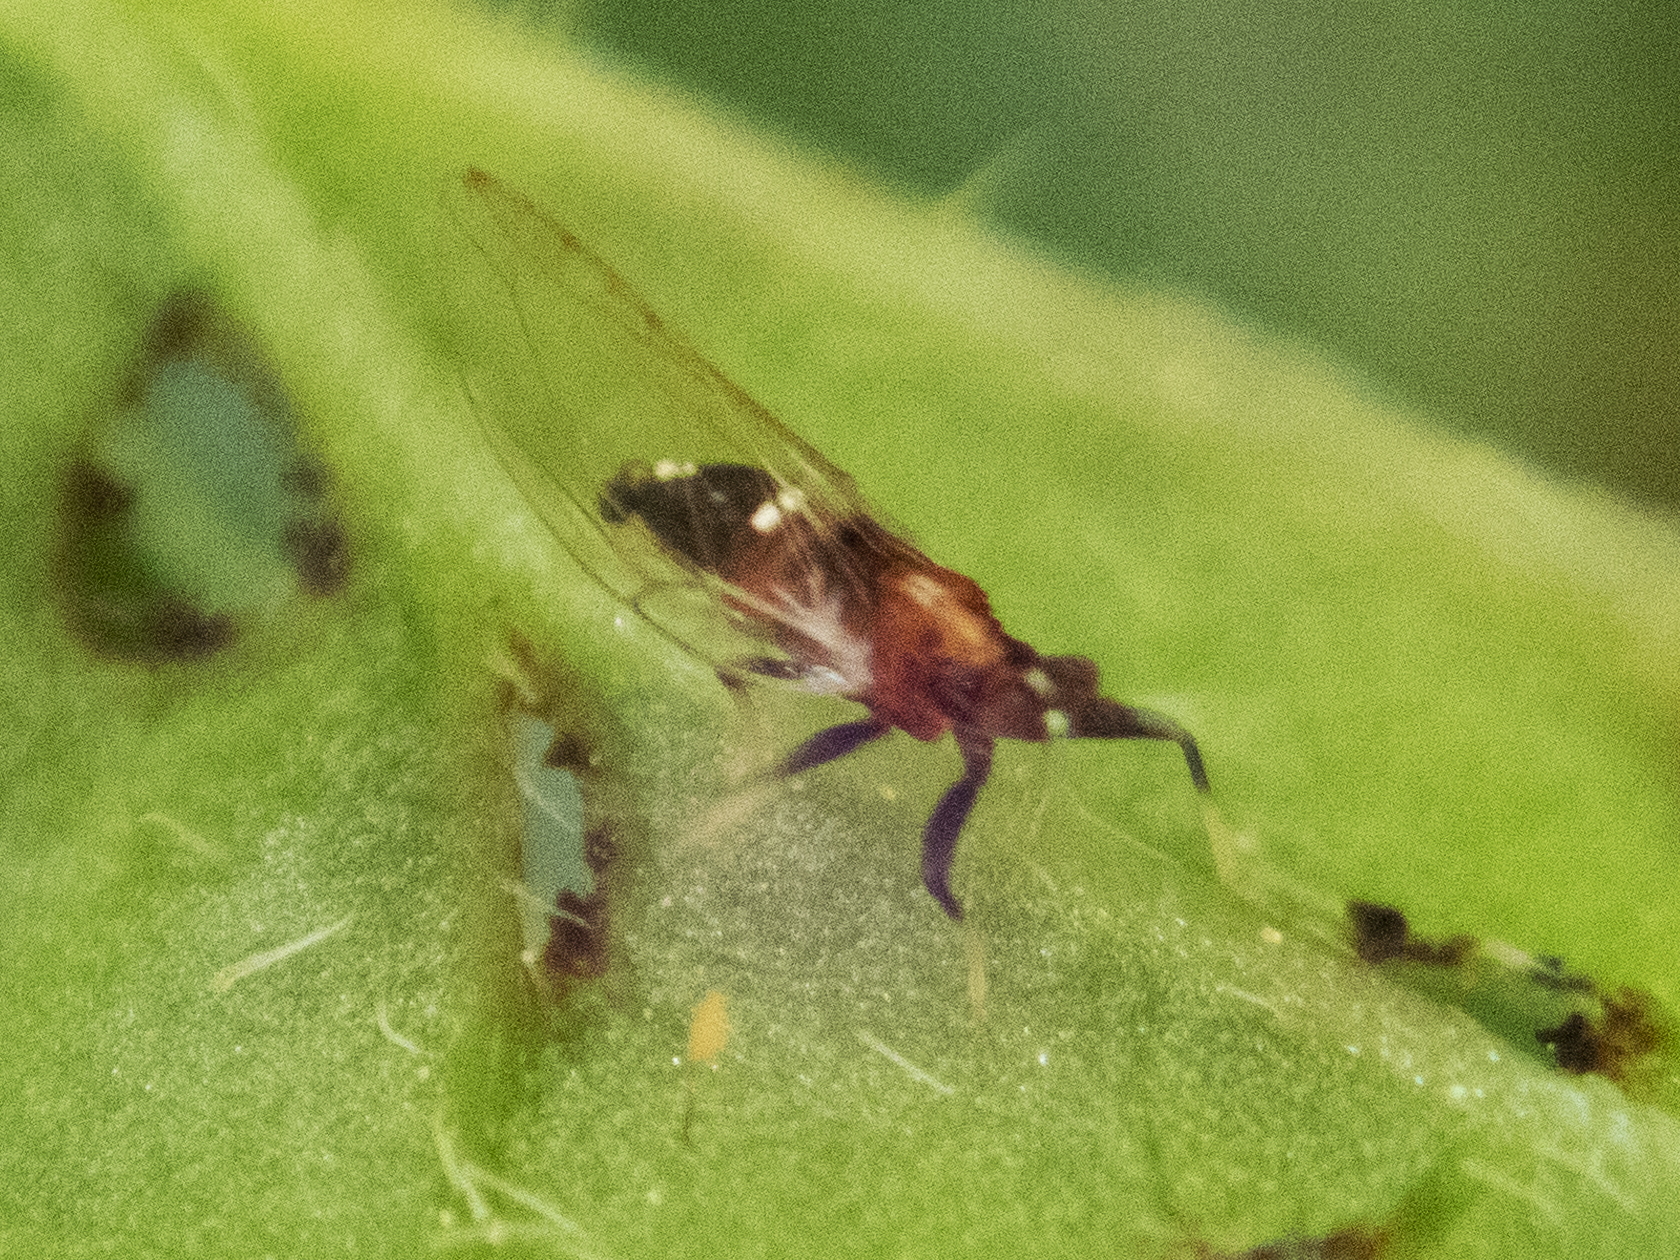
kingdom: Animalia
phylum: Arthropoda
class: Insecta
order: Hemiptera
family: Triozidae
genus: Bactericera
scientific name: Bactericera antennata
